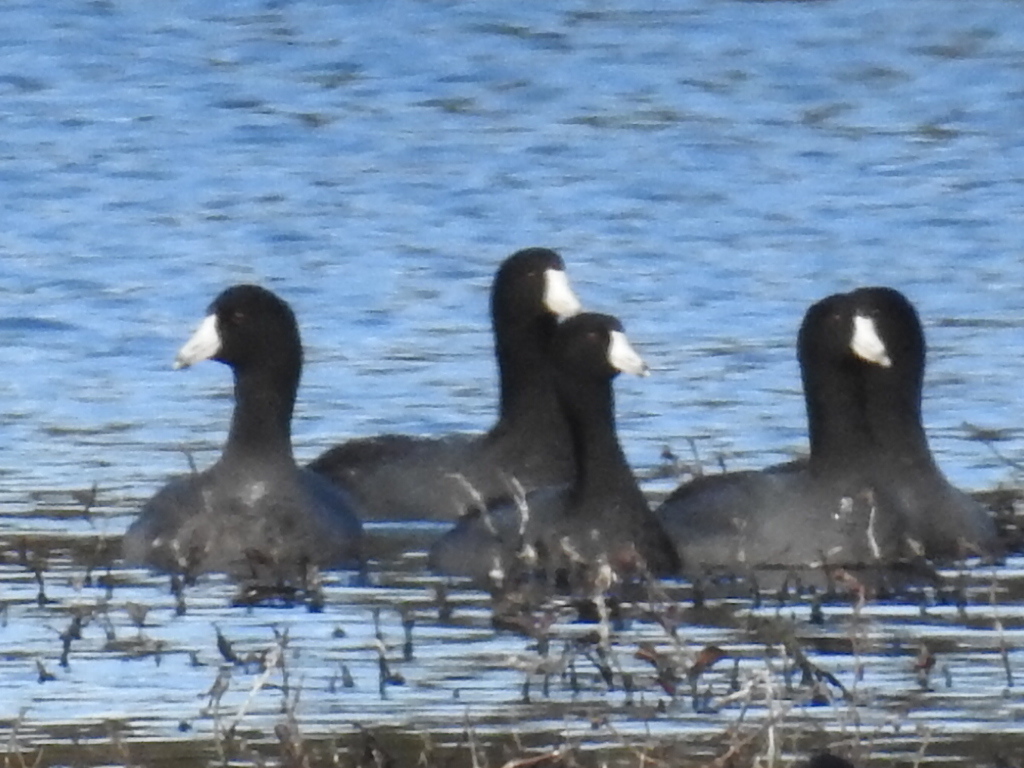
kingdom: Animalia
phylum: Chordata
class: Aves
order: Gruiformes
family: Rallidae
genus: Fulica
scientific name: Fulica americana
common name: American coot
